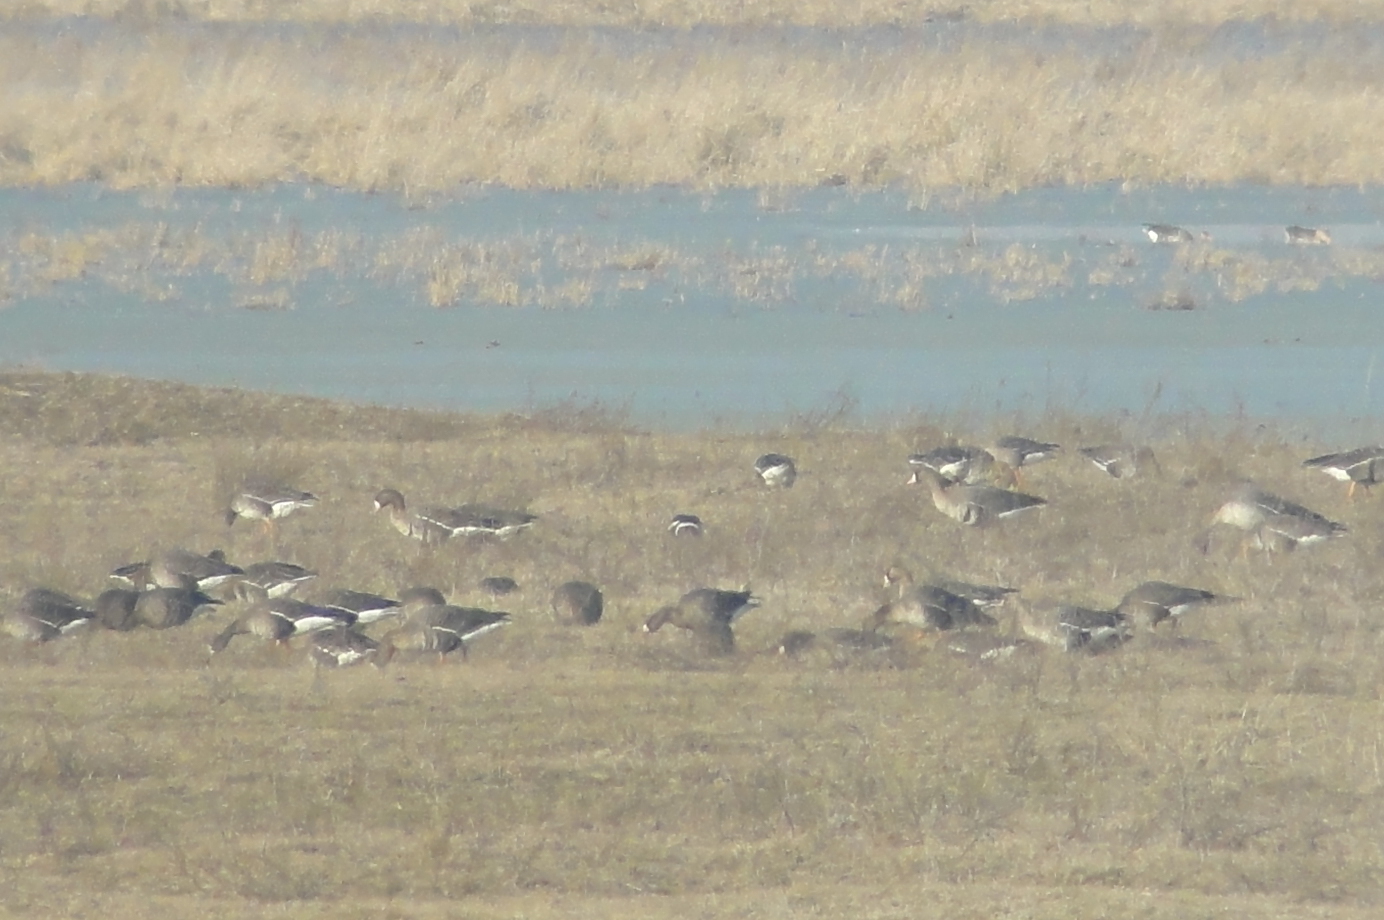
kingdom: Animalia
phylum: Chordata
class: Aves
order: Anseriformes
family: Anatidae
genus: Branta
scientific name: Branta ruficollis
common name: Red-breasted goose
